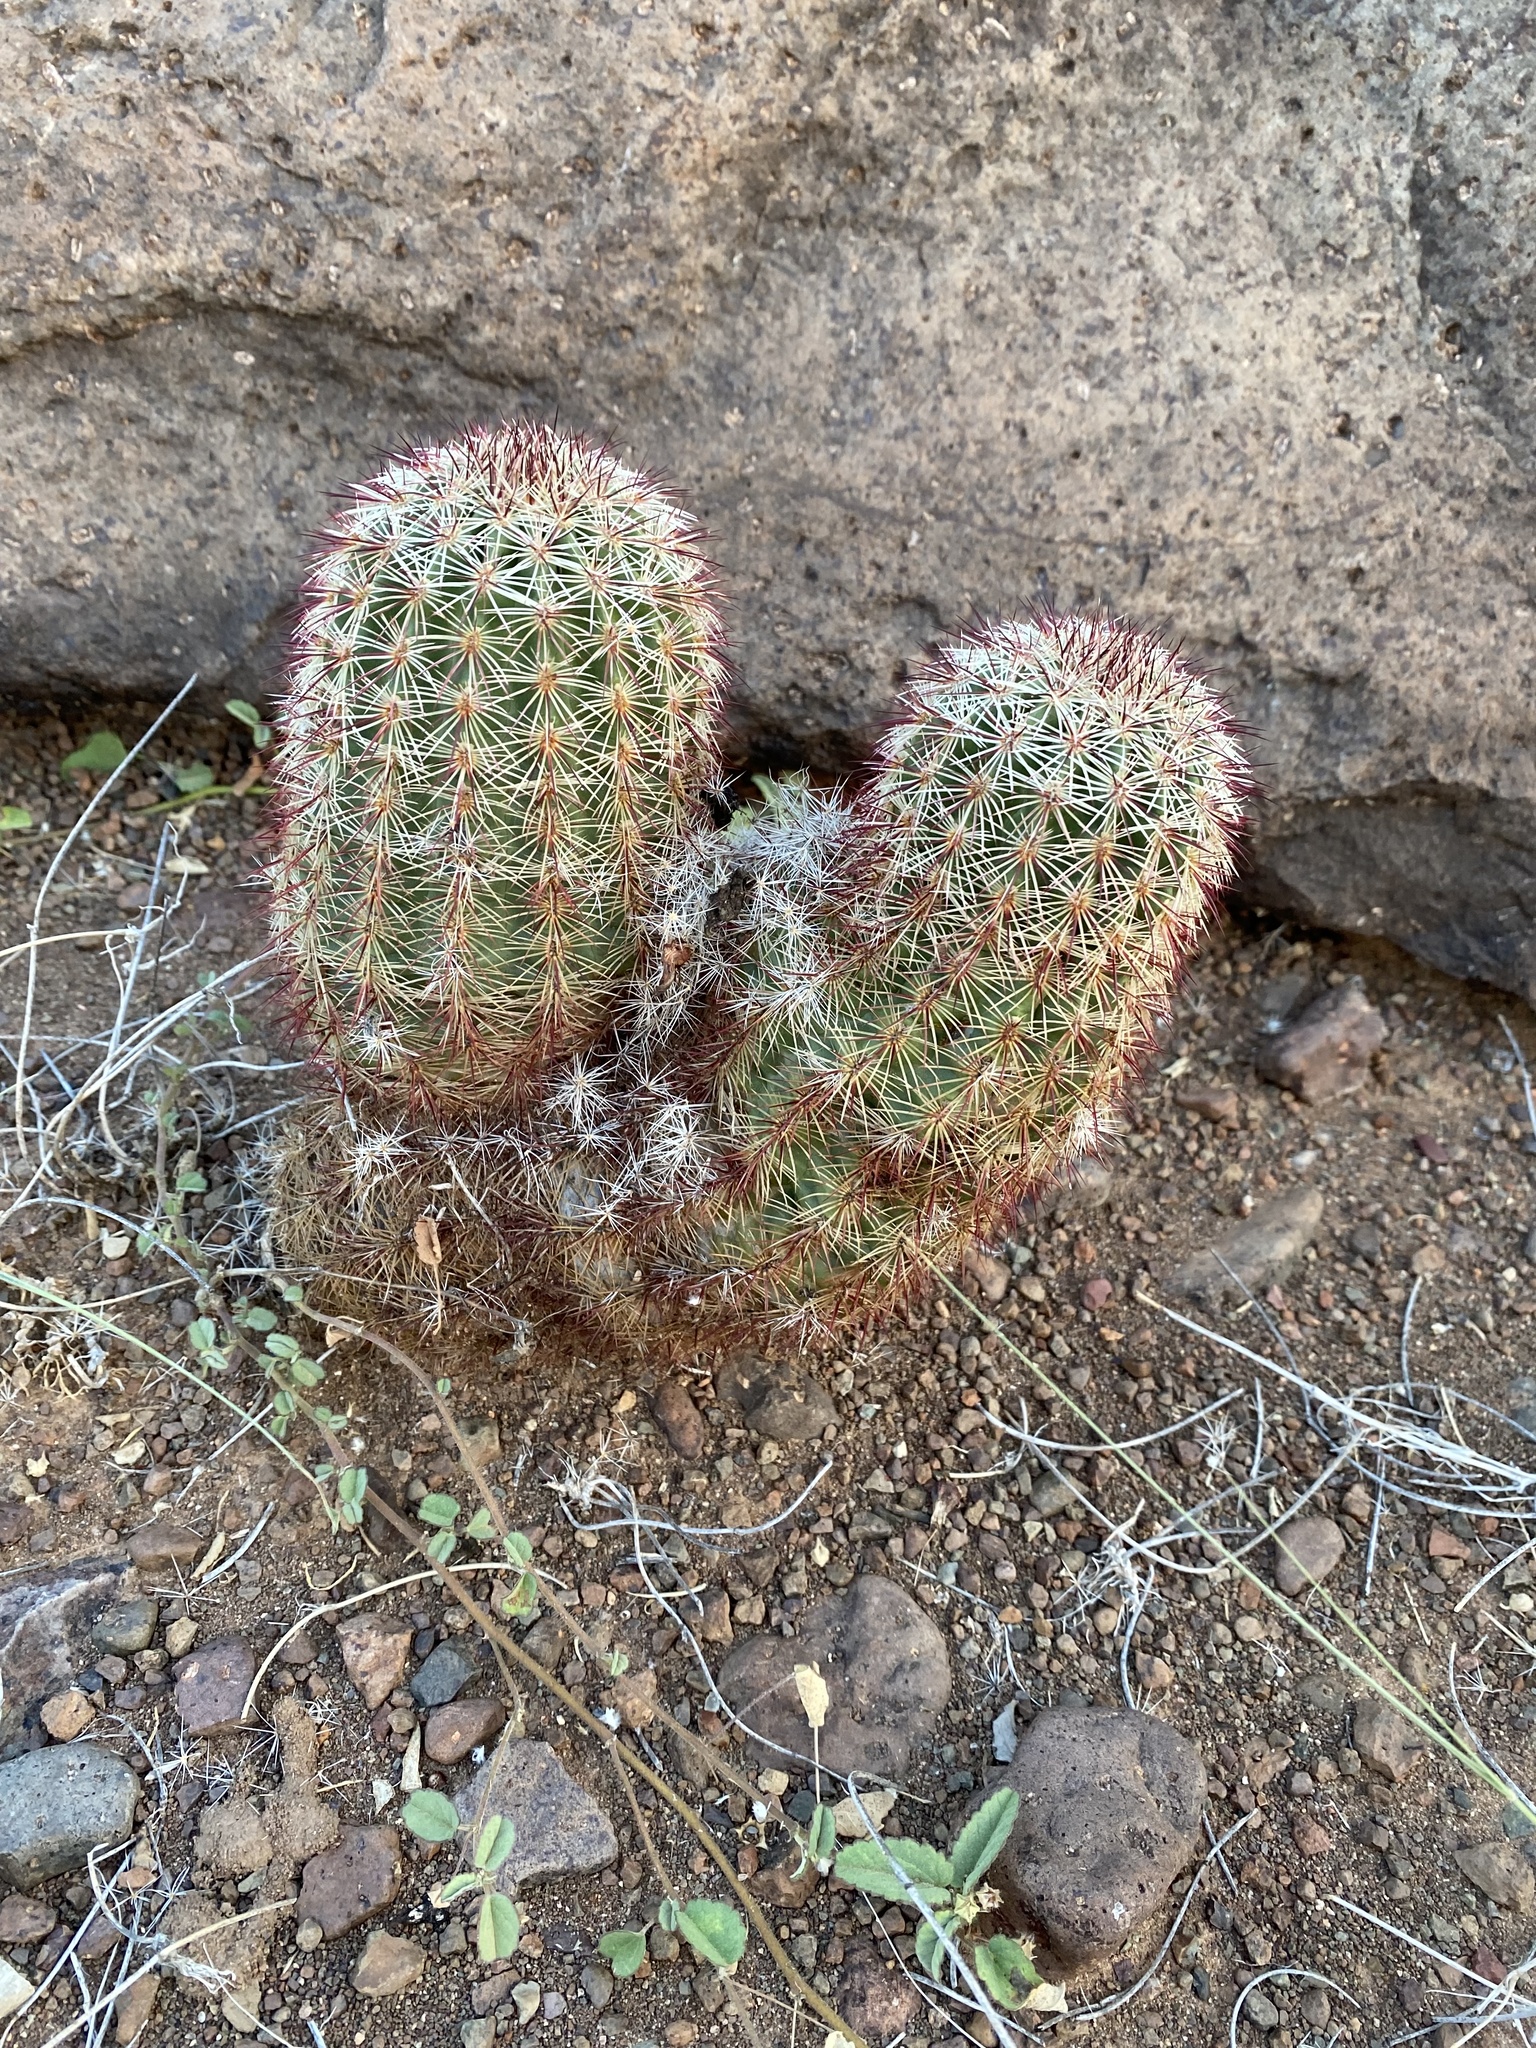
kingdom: Plantae
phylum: Tracheophyta
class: Magnoliopsida
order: Caryophyllales
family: Cactaceae
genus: Echinocereus
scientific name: Echinocereus viridiflorus
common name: Nylon hedgehog cactus
